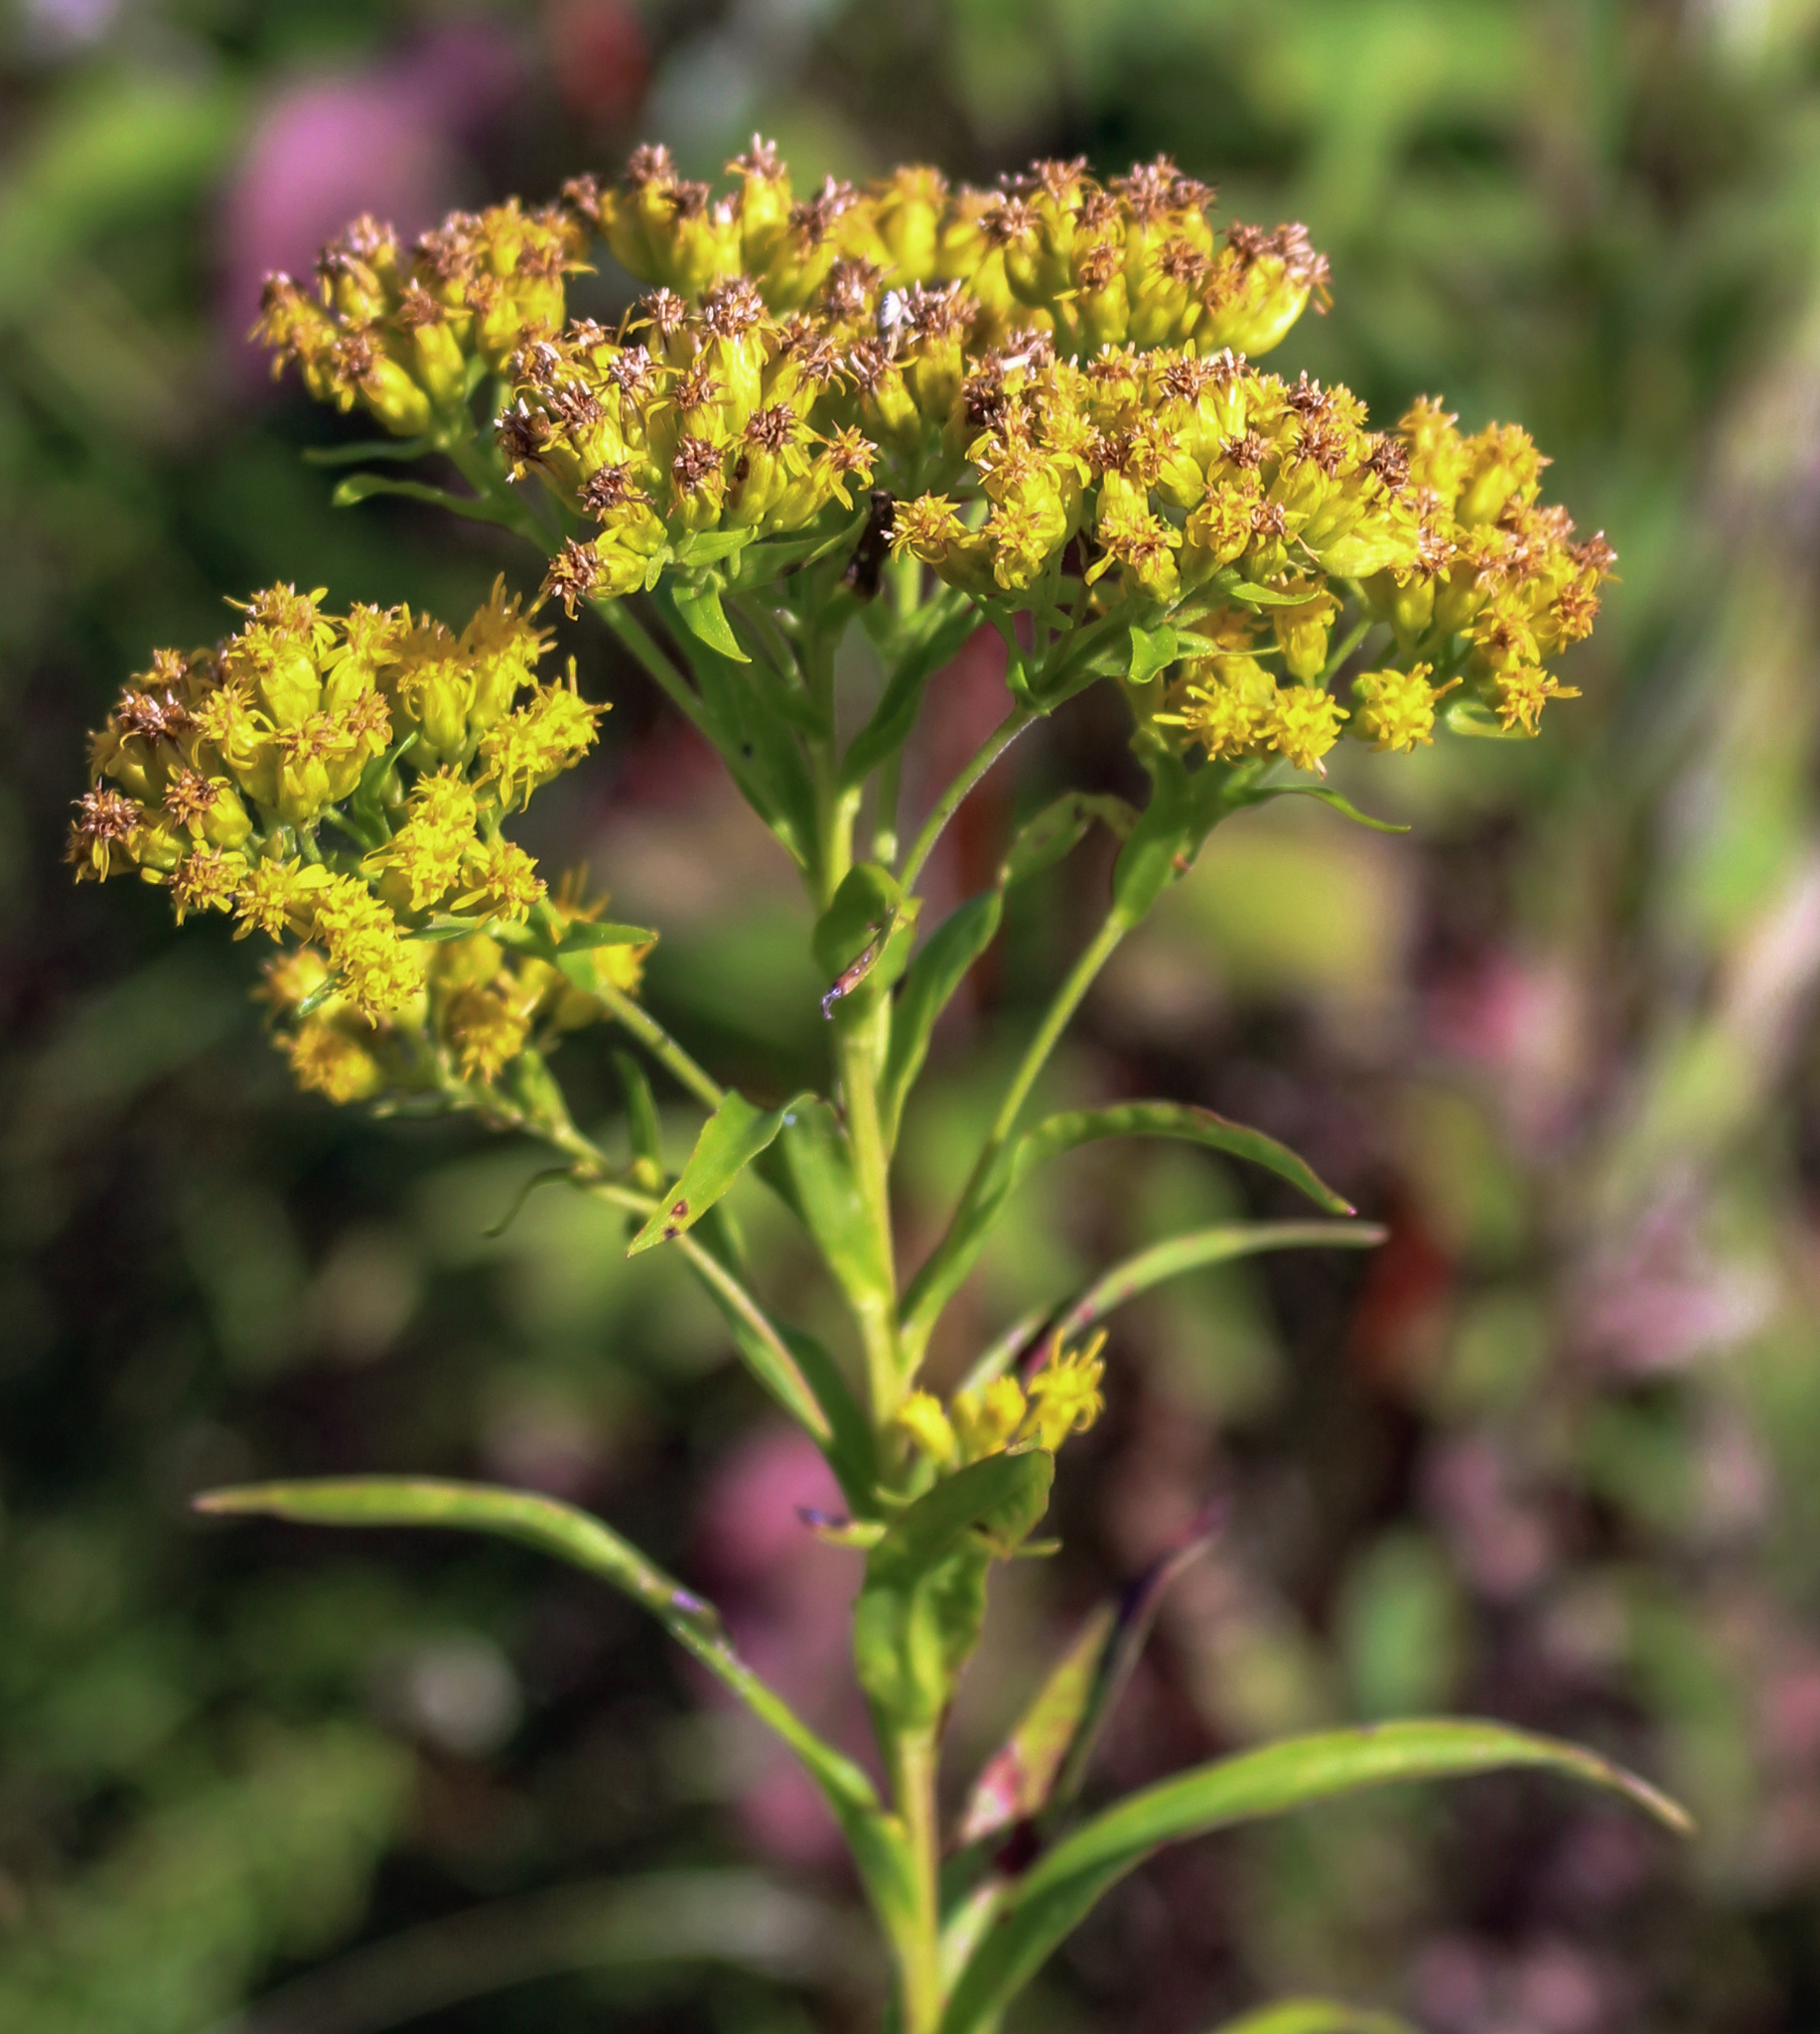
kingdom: Plantae
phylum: Tracheophyta
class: Magnoliopsida
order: Asterales
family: Asteraceae
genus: Solidago
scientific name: Solidago riddellii
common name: Riddell's goldenrod
